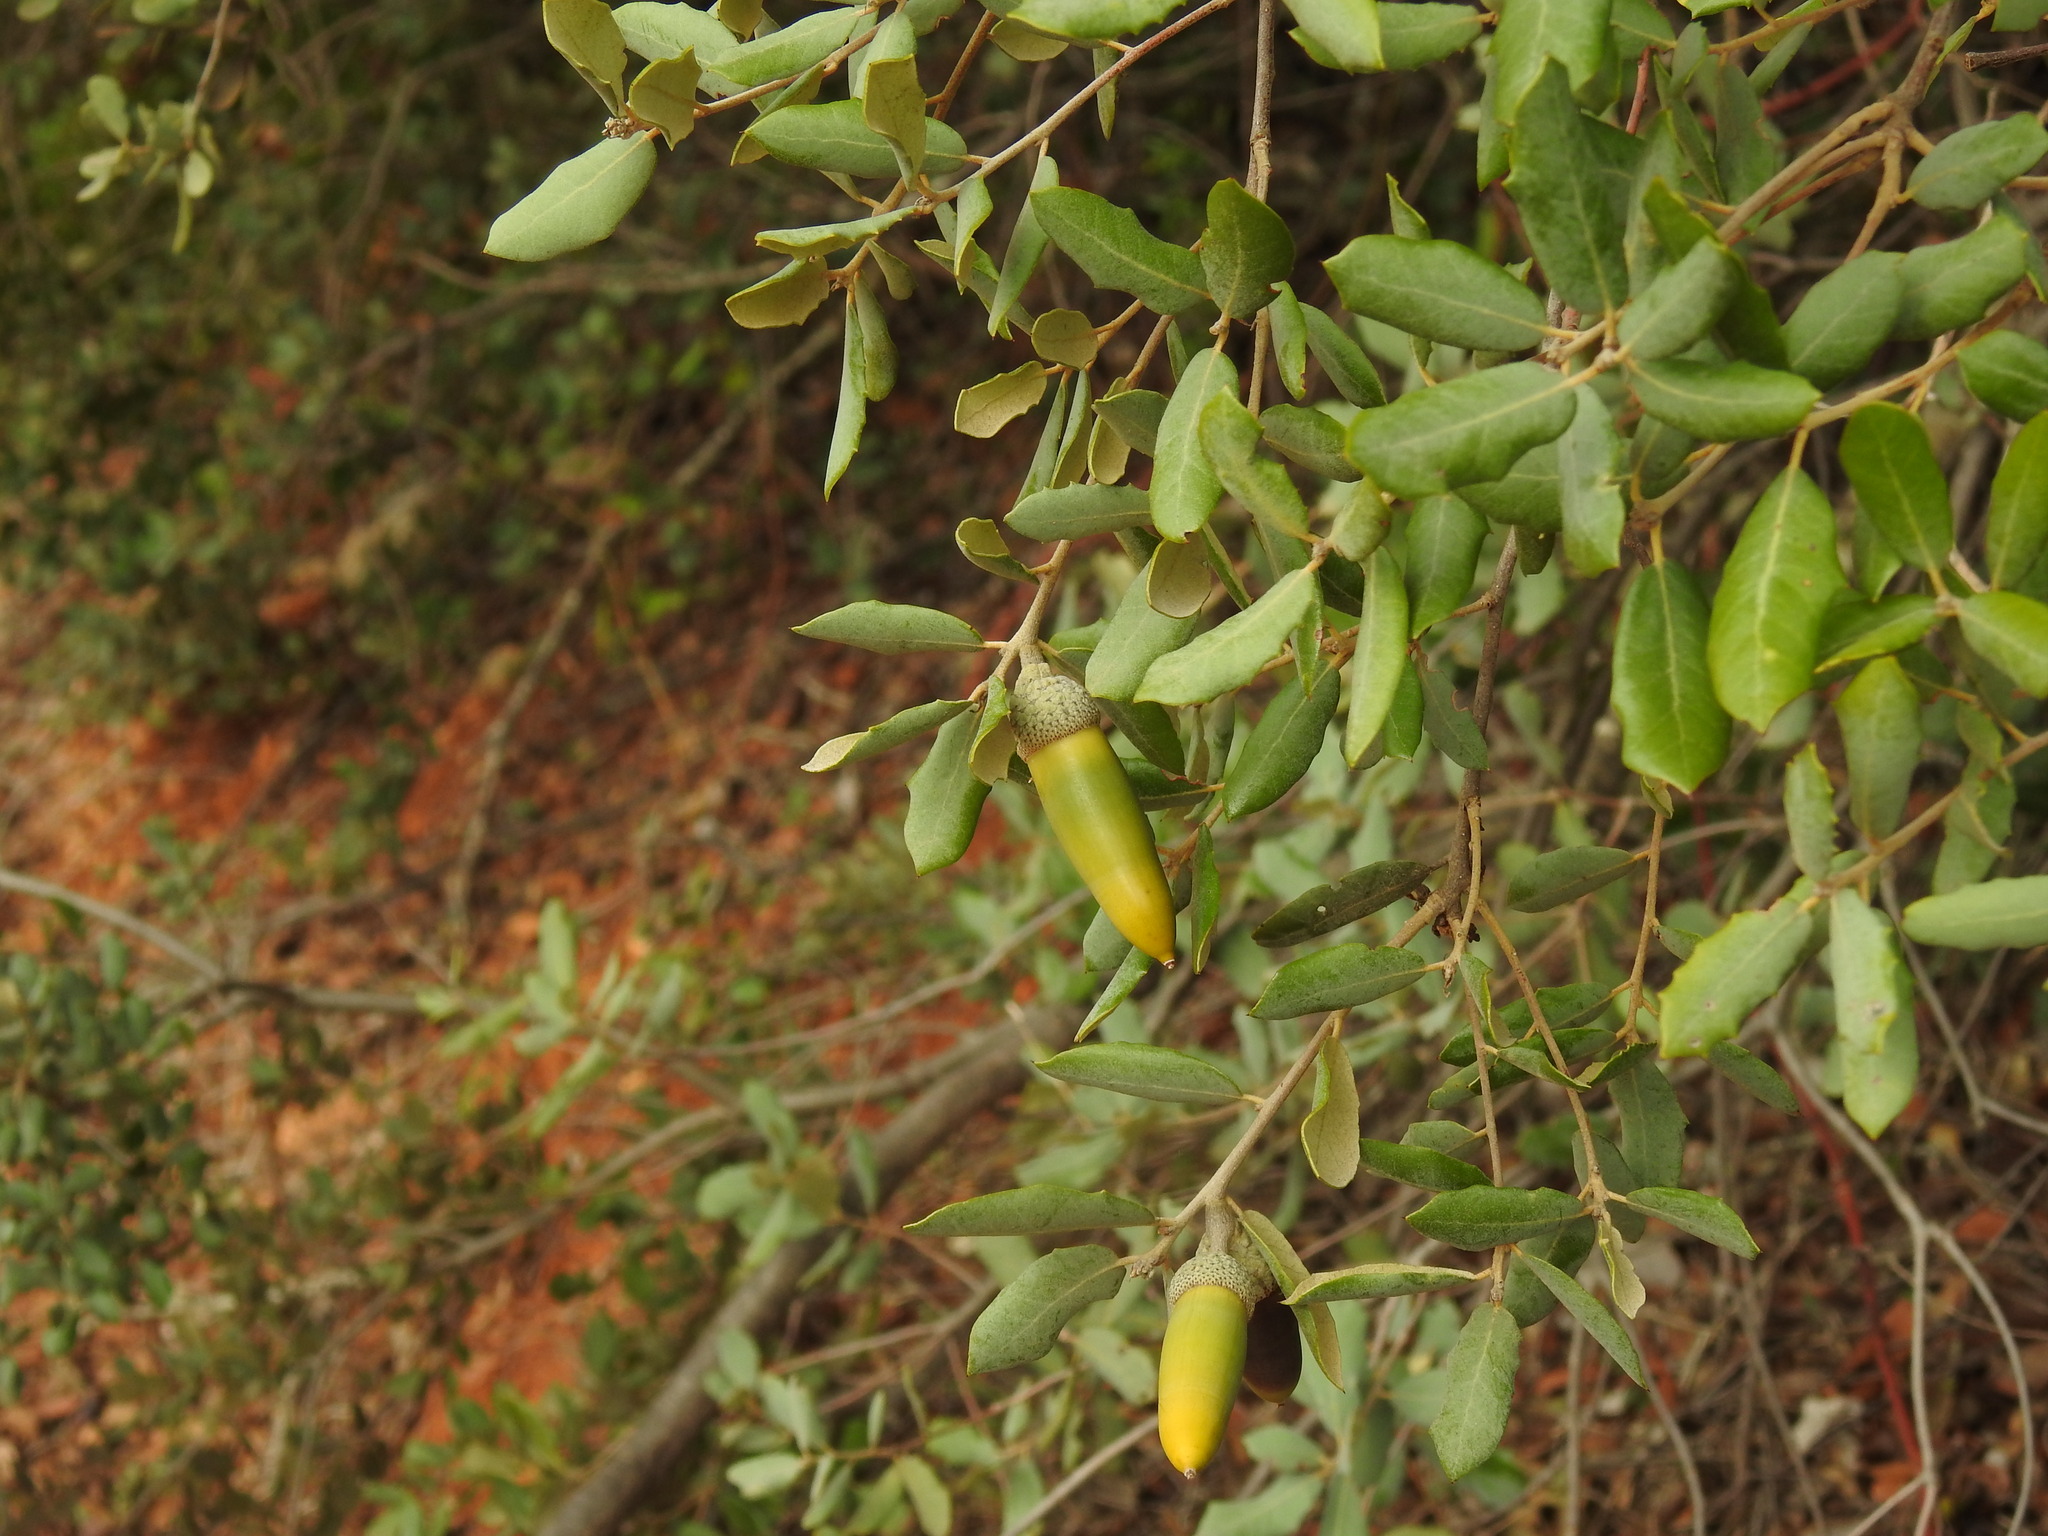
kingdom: Plantae
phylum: Tracheophyta
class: Magnoliopsida
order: Fagales
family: Fagaceae
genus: Quercus
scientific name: Quercus rotundifolia
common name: Holm oak
